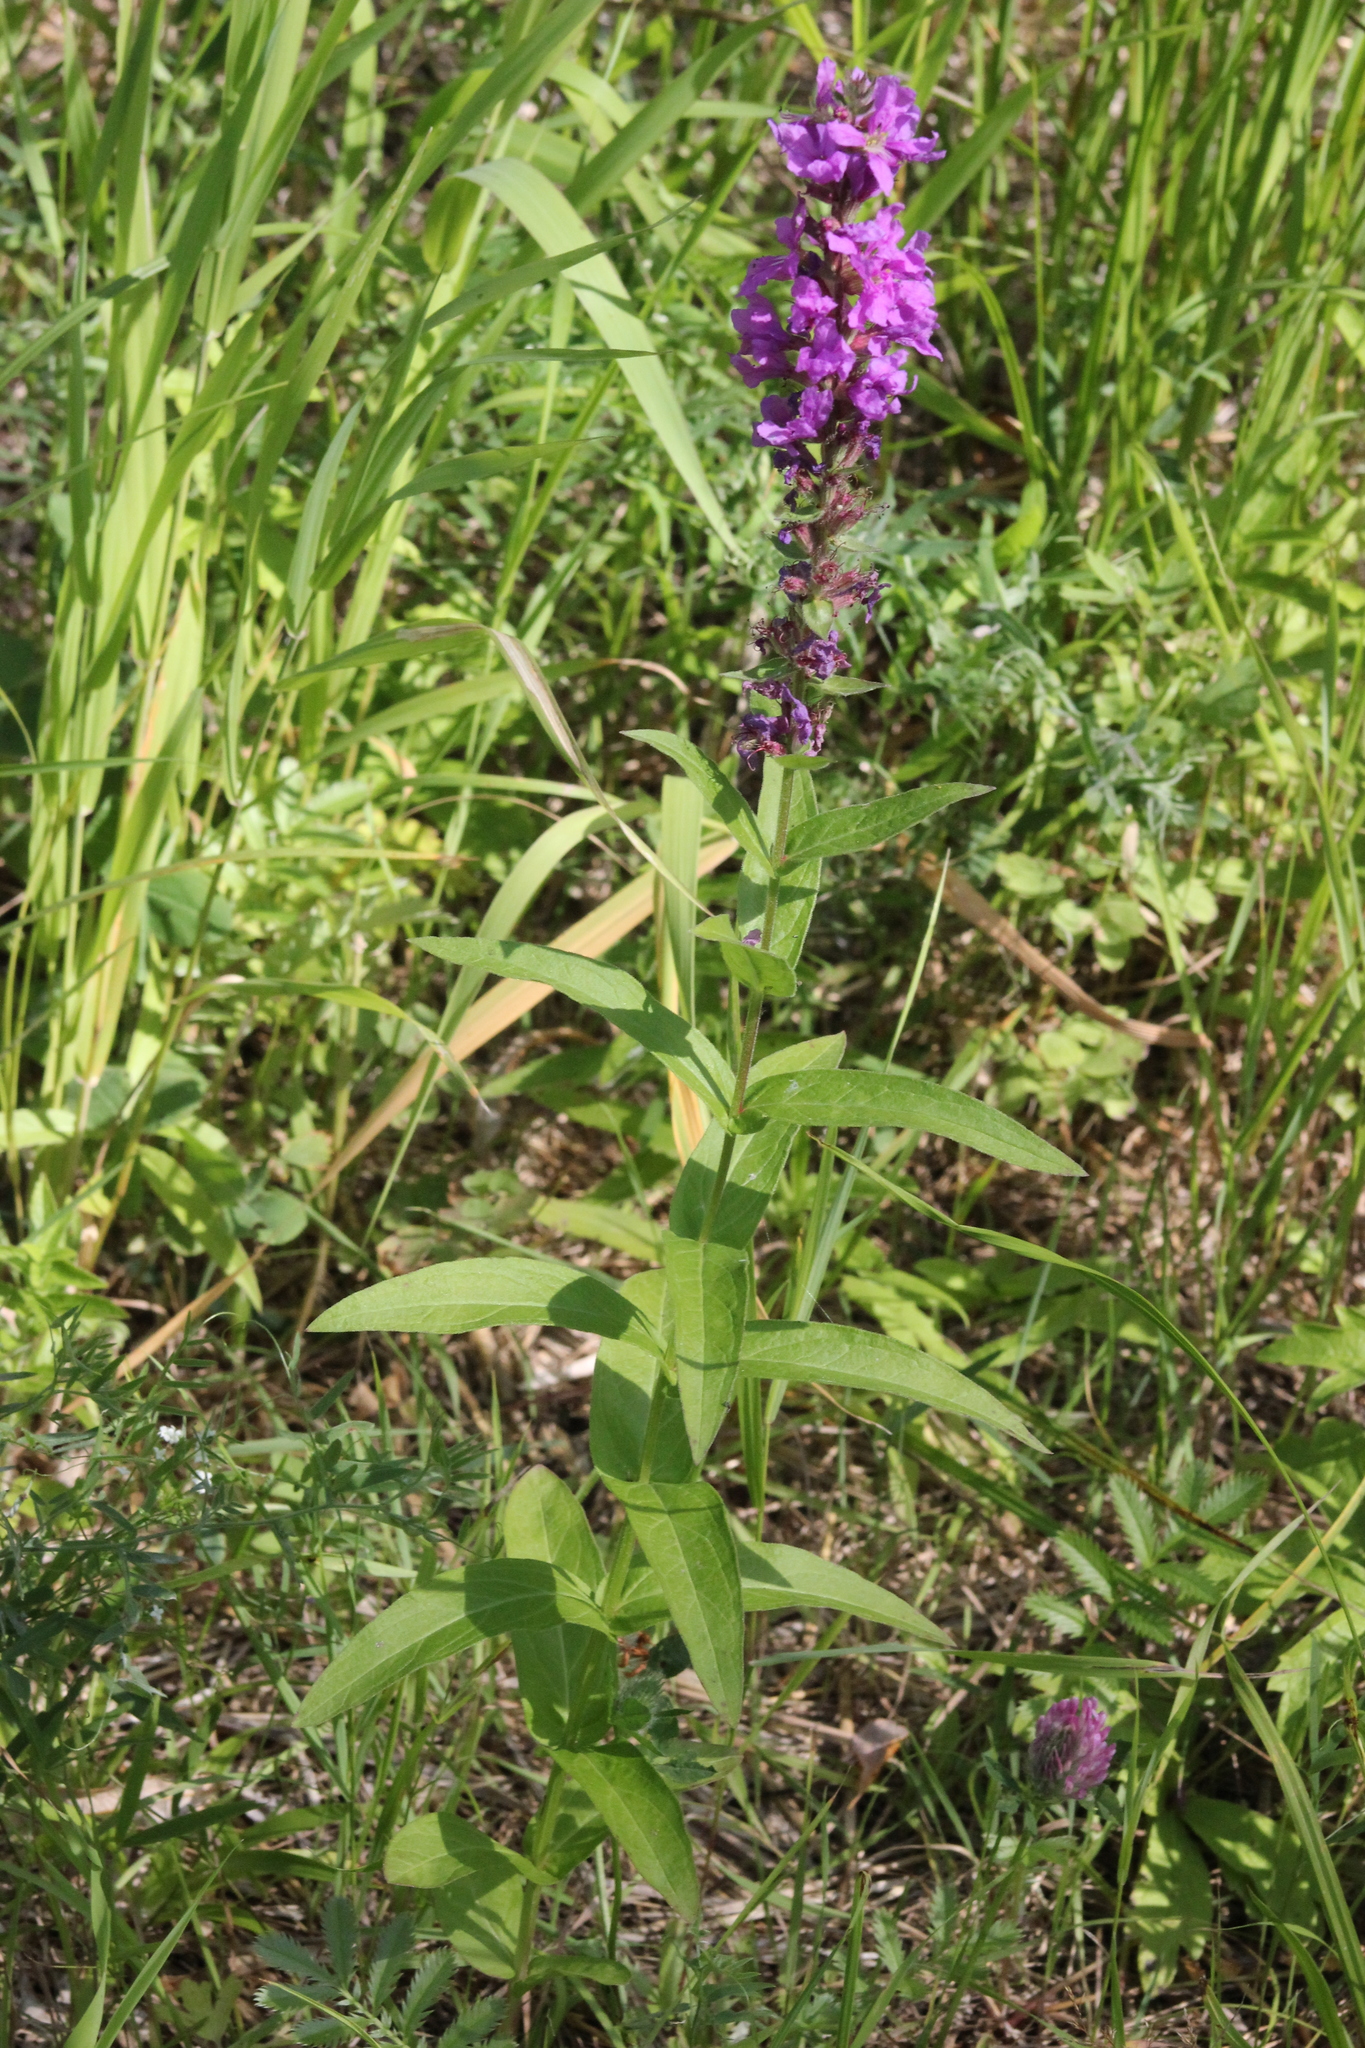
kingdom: Plantae
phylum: Tracheophyta
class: Magnoliopsida
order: Myrtales
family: Lythraceae
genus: Lythrum
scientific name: Lythrum salicaria
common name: Purple loosestrife
